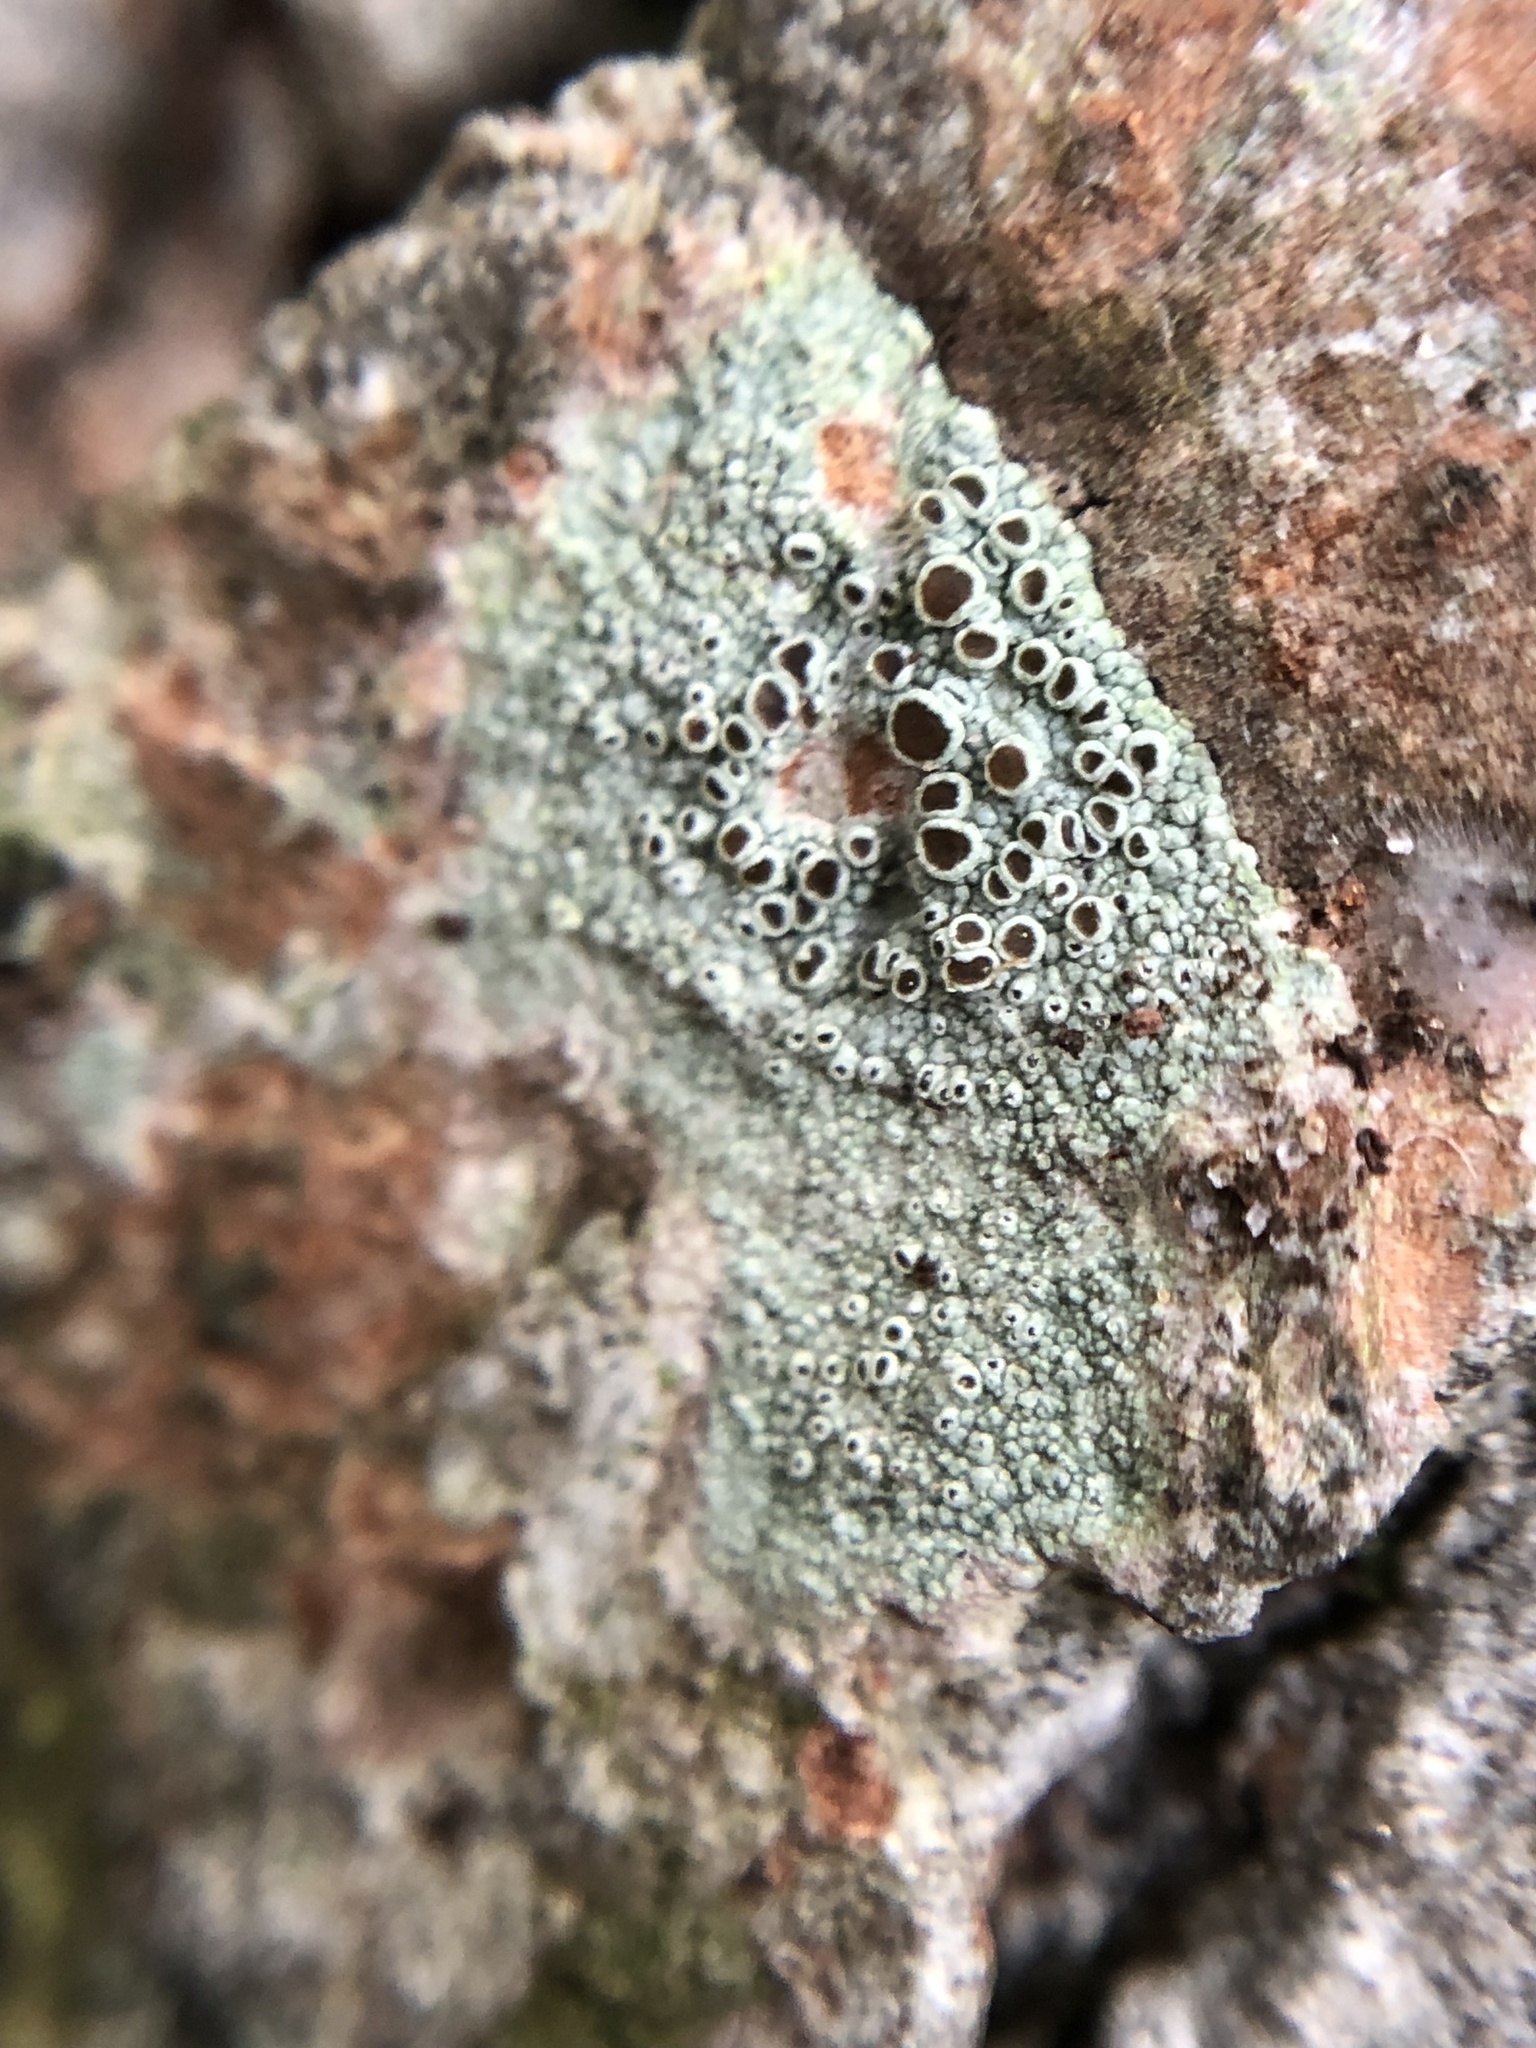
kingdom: Fungi
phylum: Ascomycota
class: Lecanoromycetes
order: Lecanorales
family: Lecanoraceae
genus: Lecanora
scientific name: Lecanora cinereofusca
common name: Beaded rim-lichen
